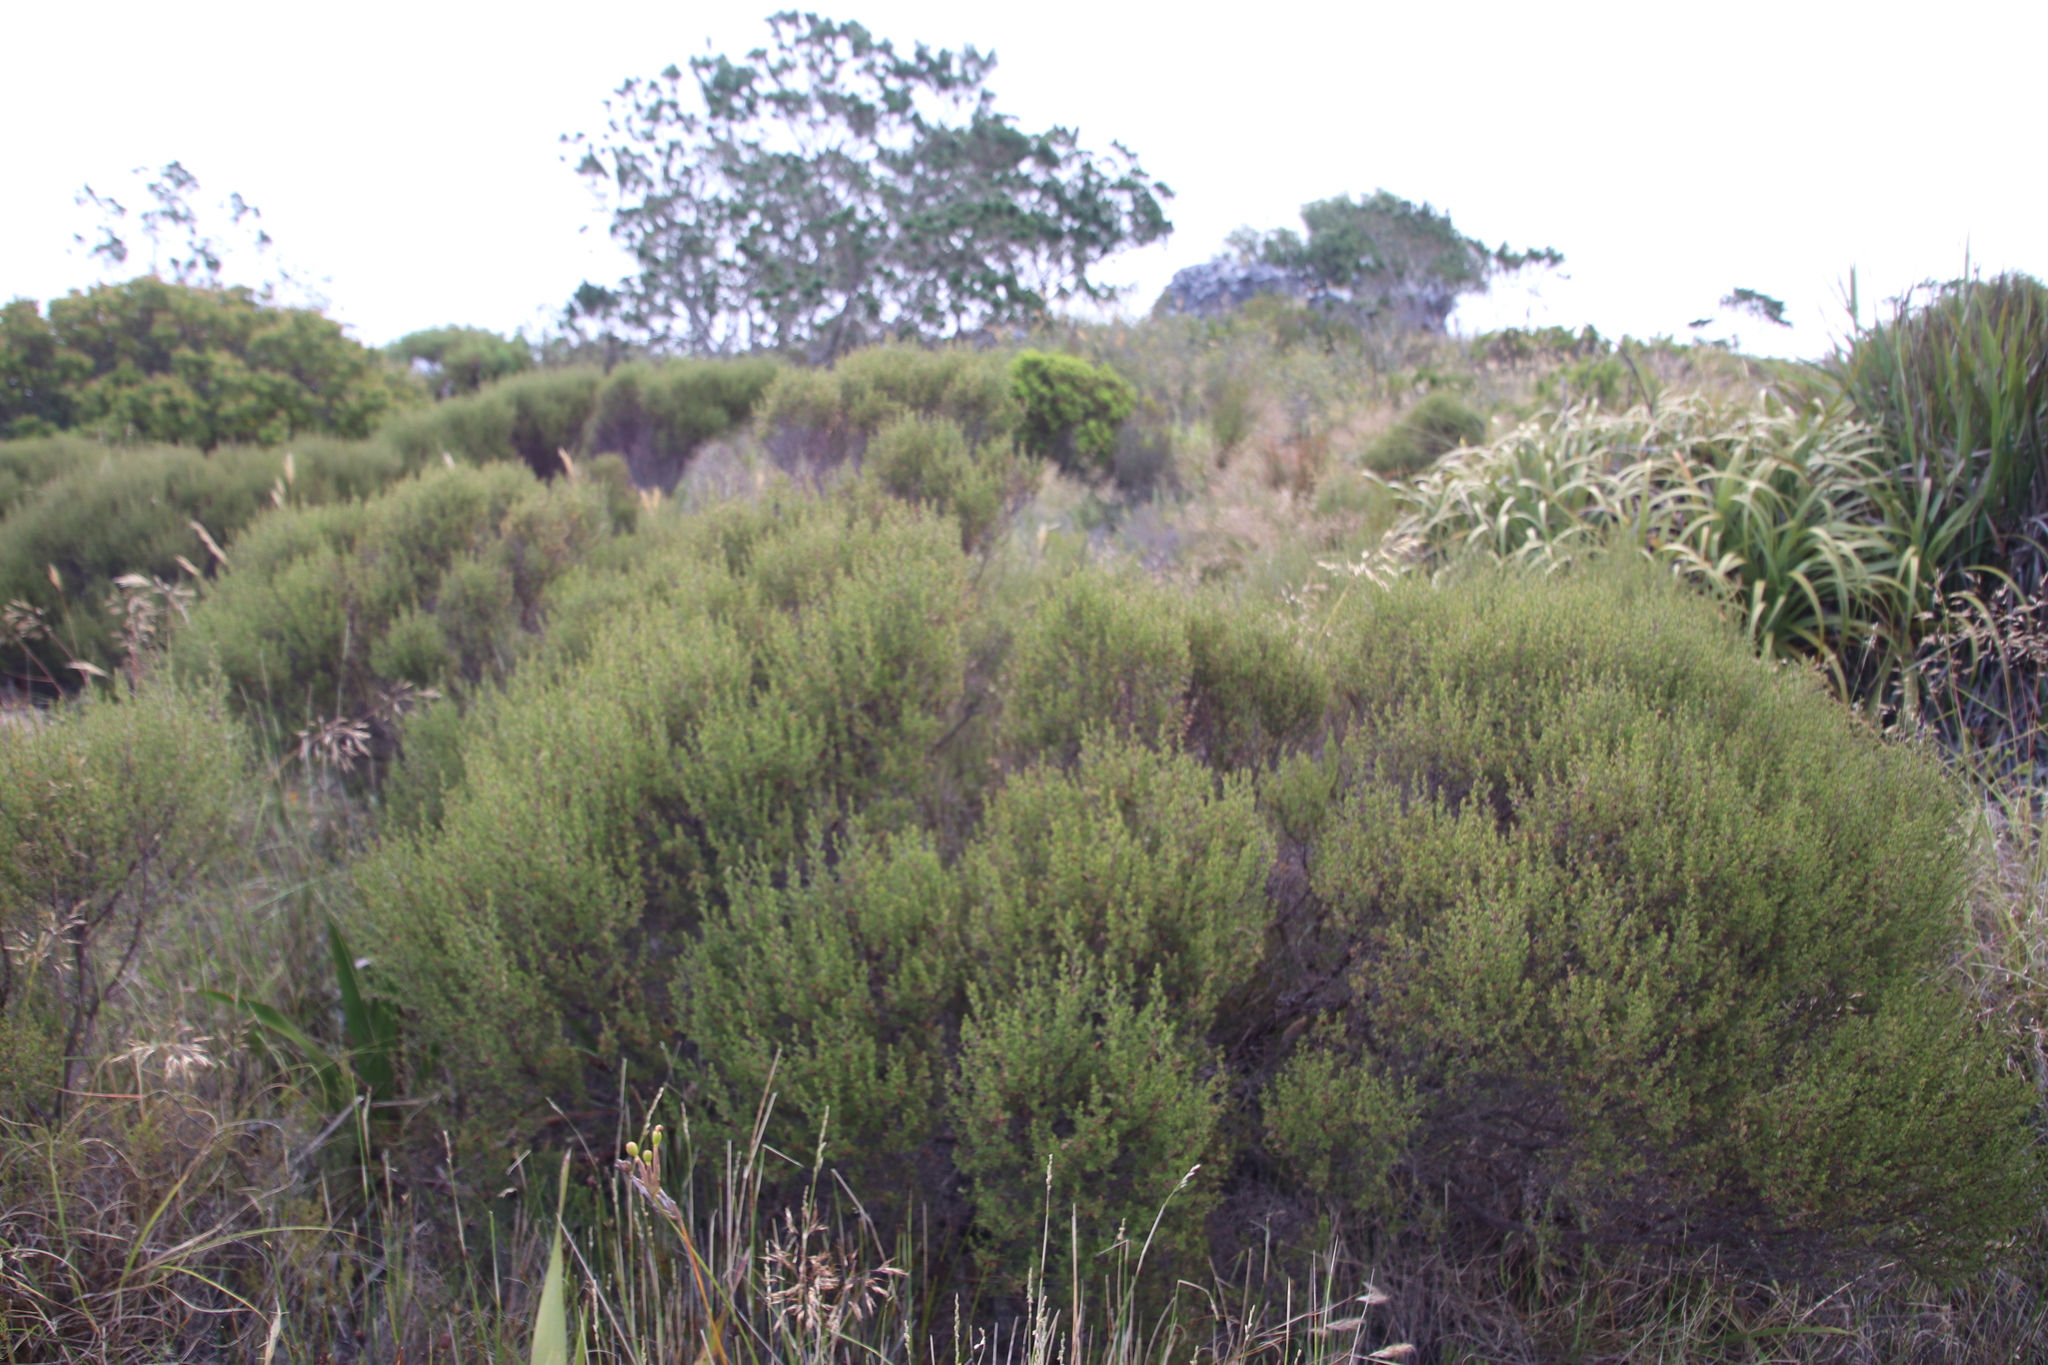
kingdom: Plantae
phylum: Tracheophyta
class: Magnoliopsida
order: Rosales
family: Rosaceae
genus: Cliffortia
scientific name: Cliffortia atrata
